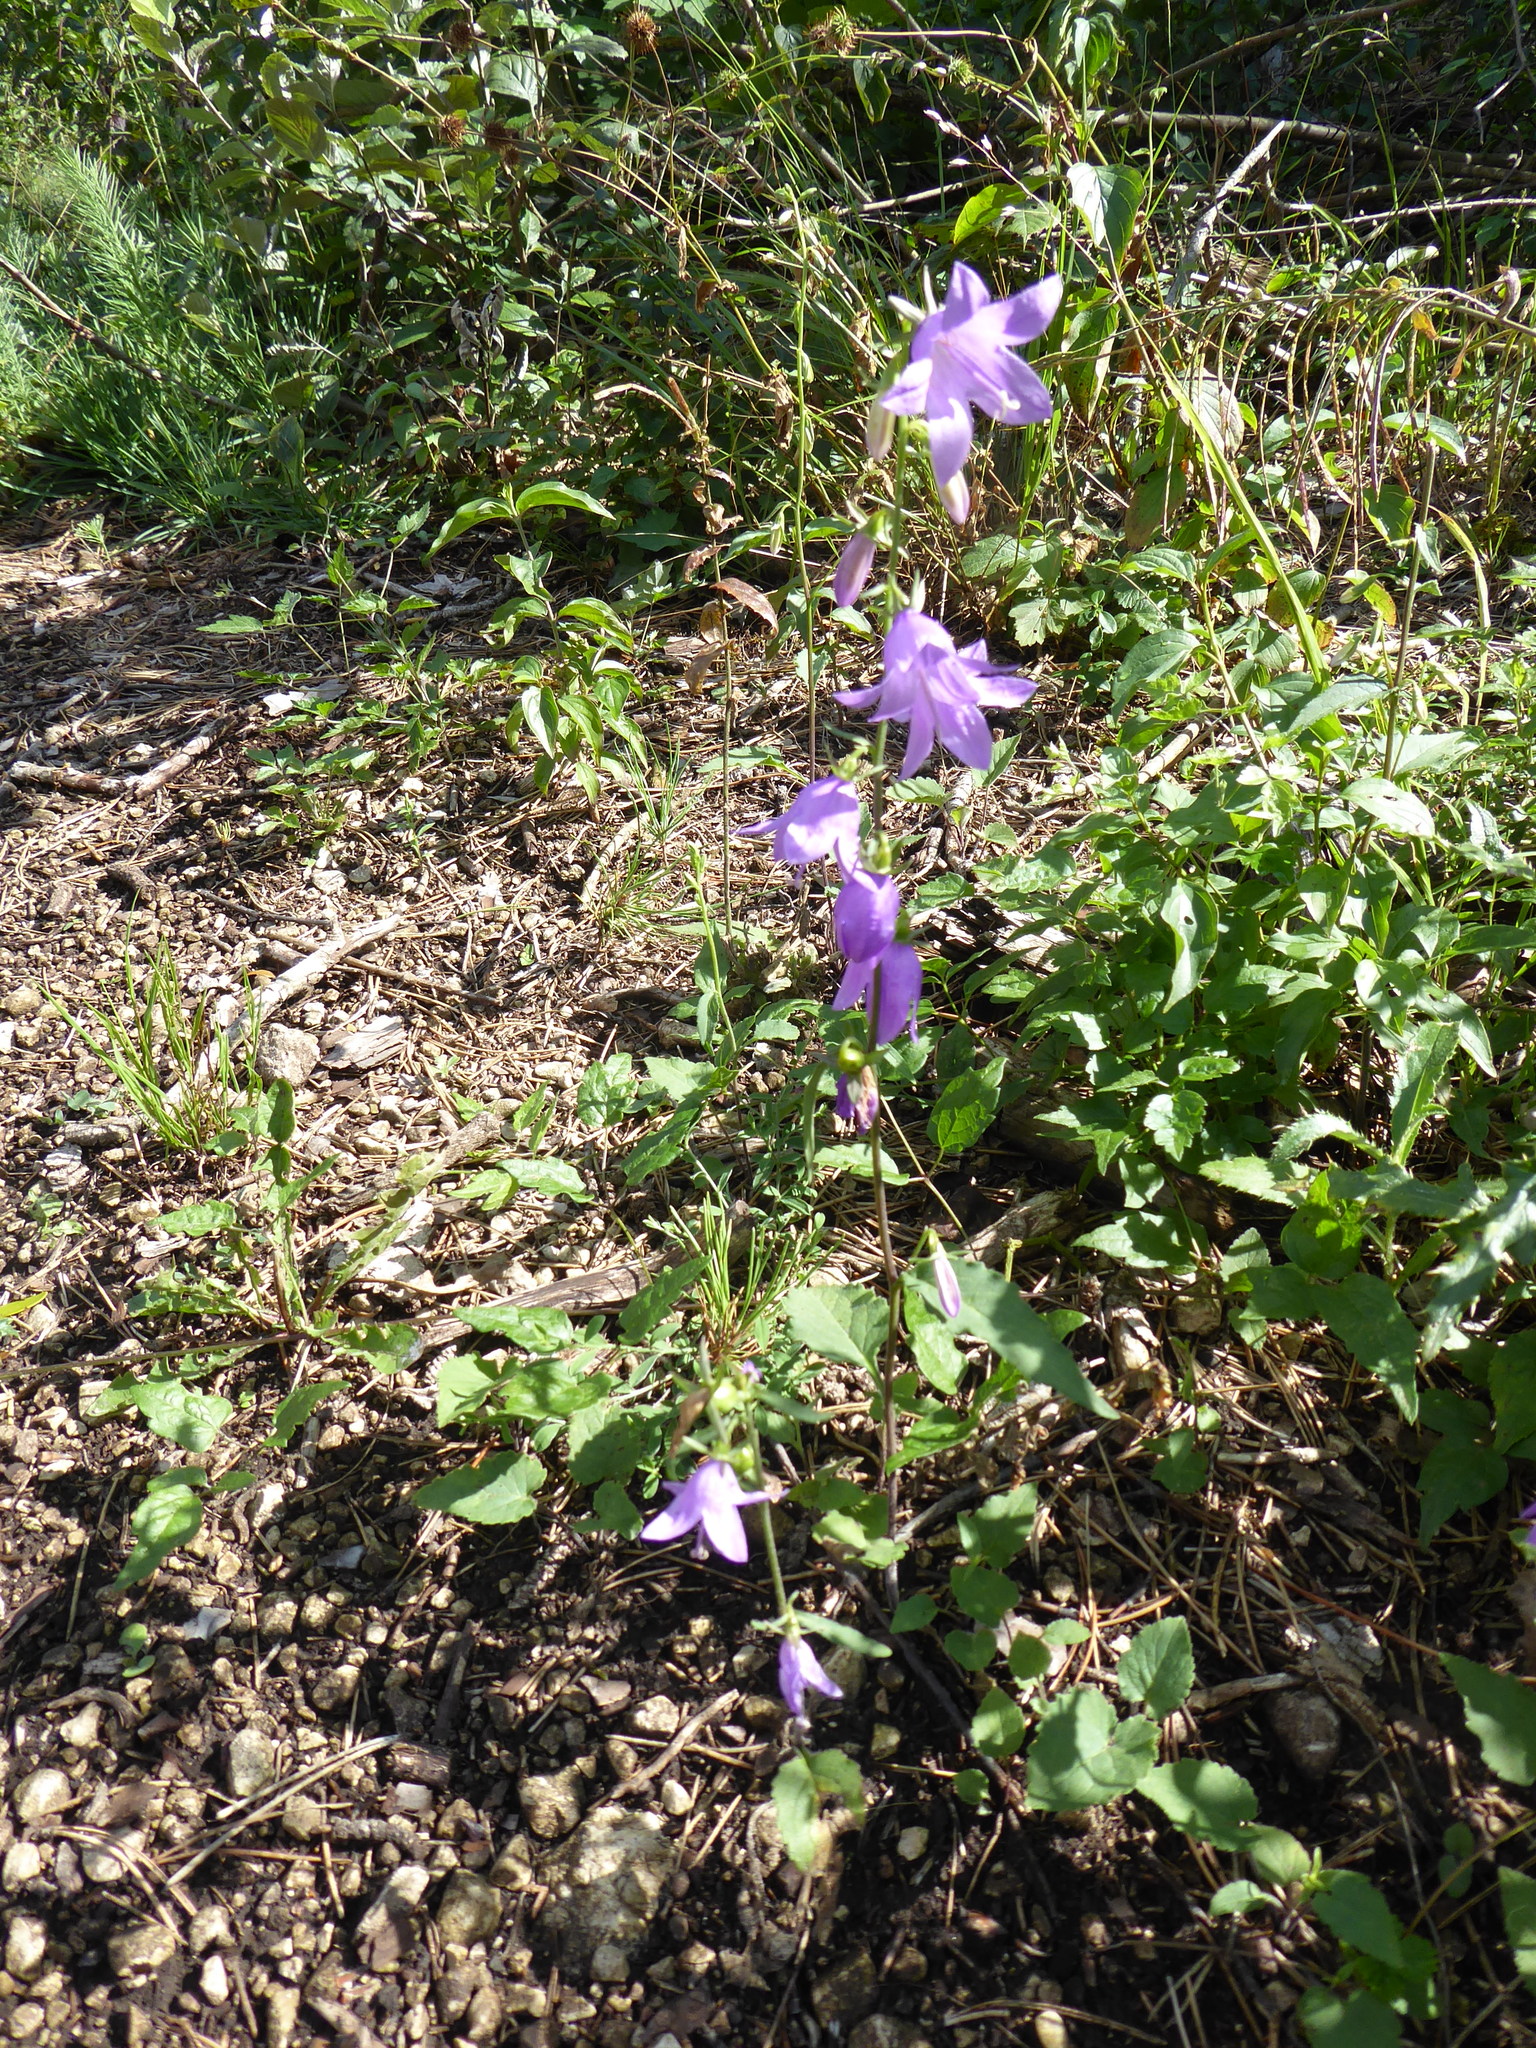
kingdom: Plantae
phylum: Tracheophyta
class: Magnoliopsida
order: Asterales
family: Campanulaceae
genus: Campanula
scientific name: Campanula rapunculoides
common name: Creeping bellflower
